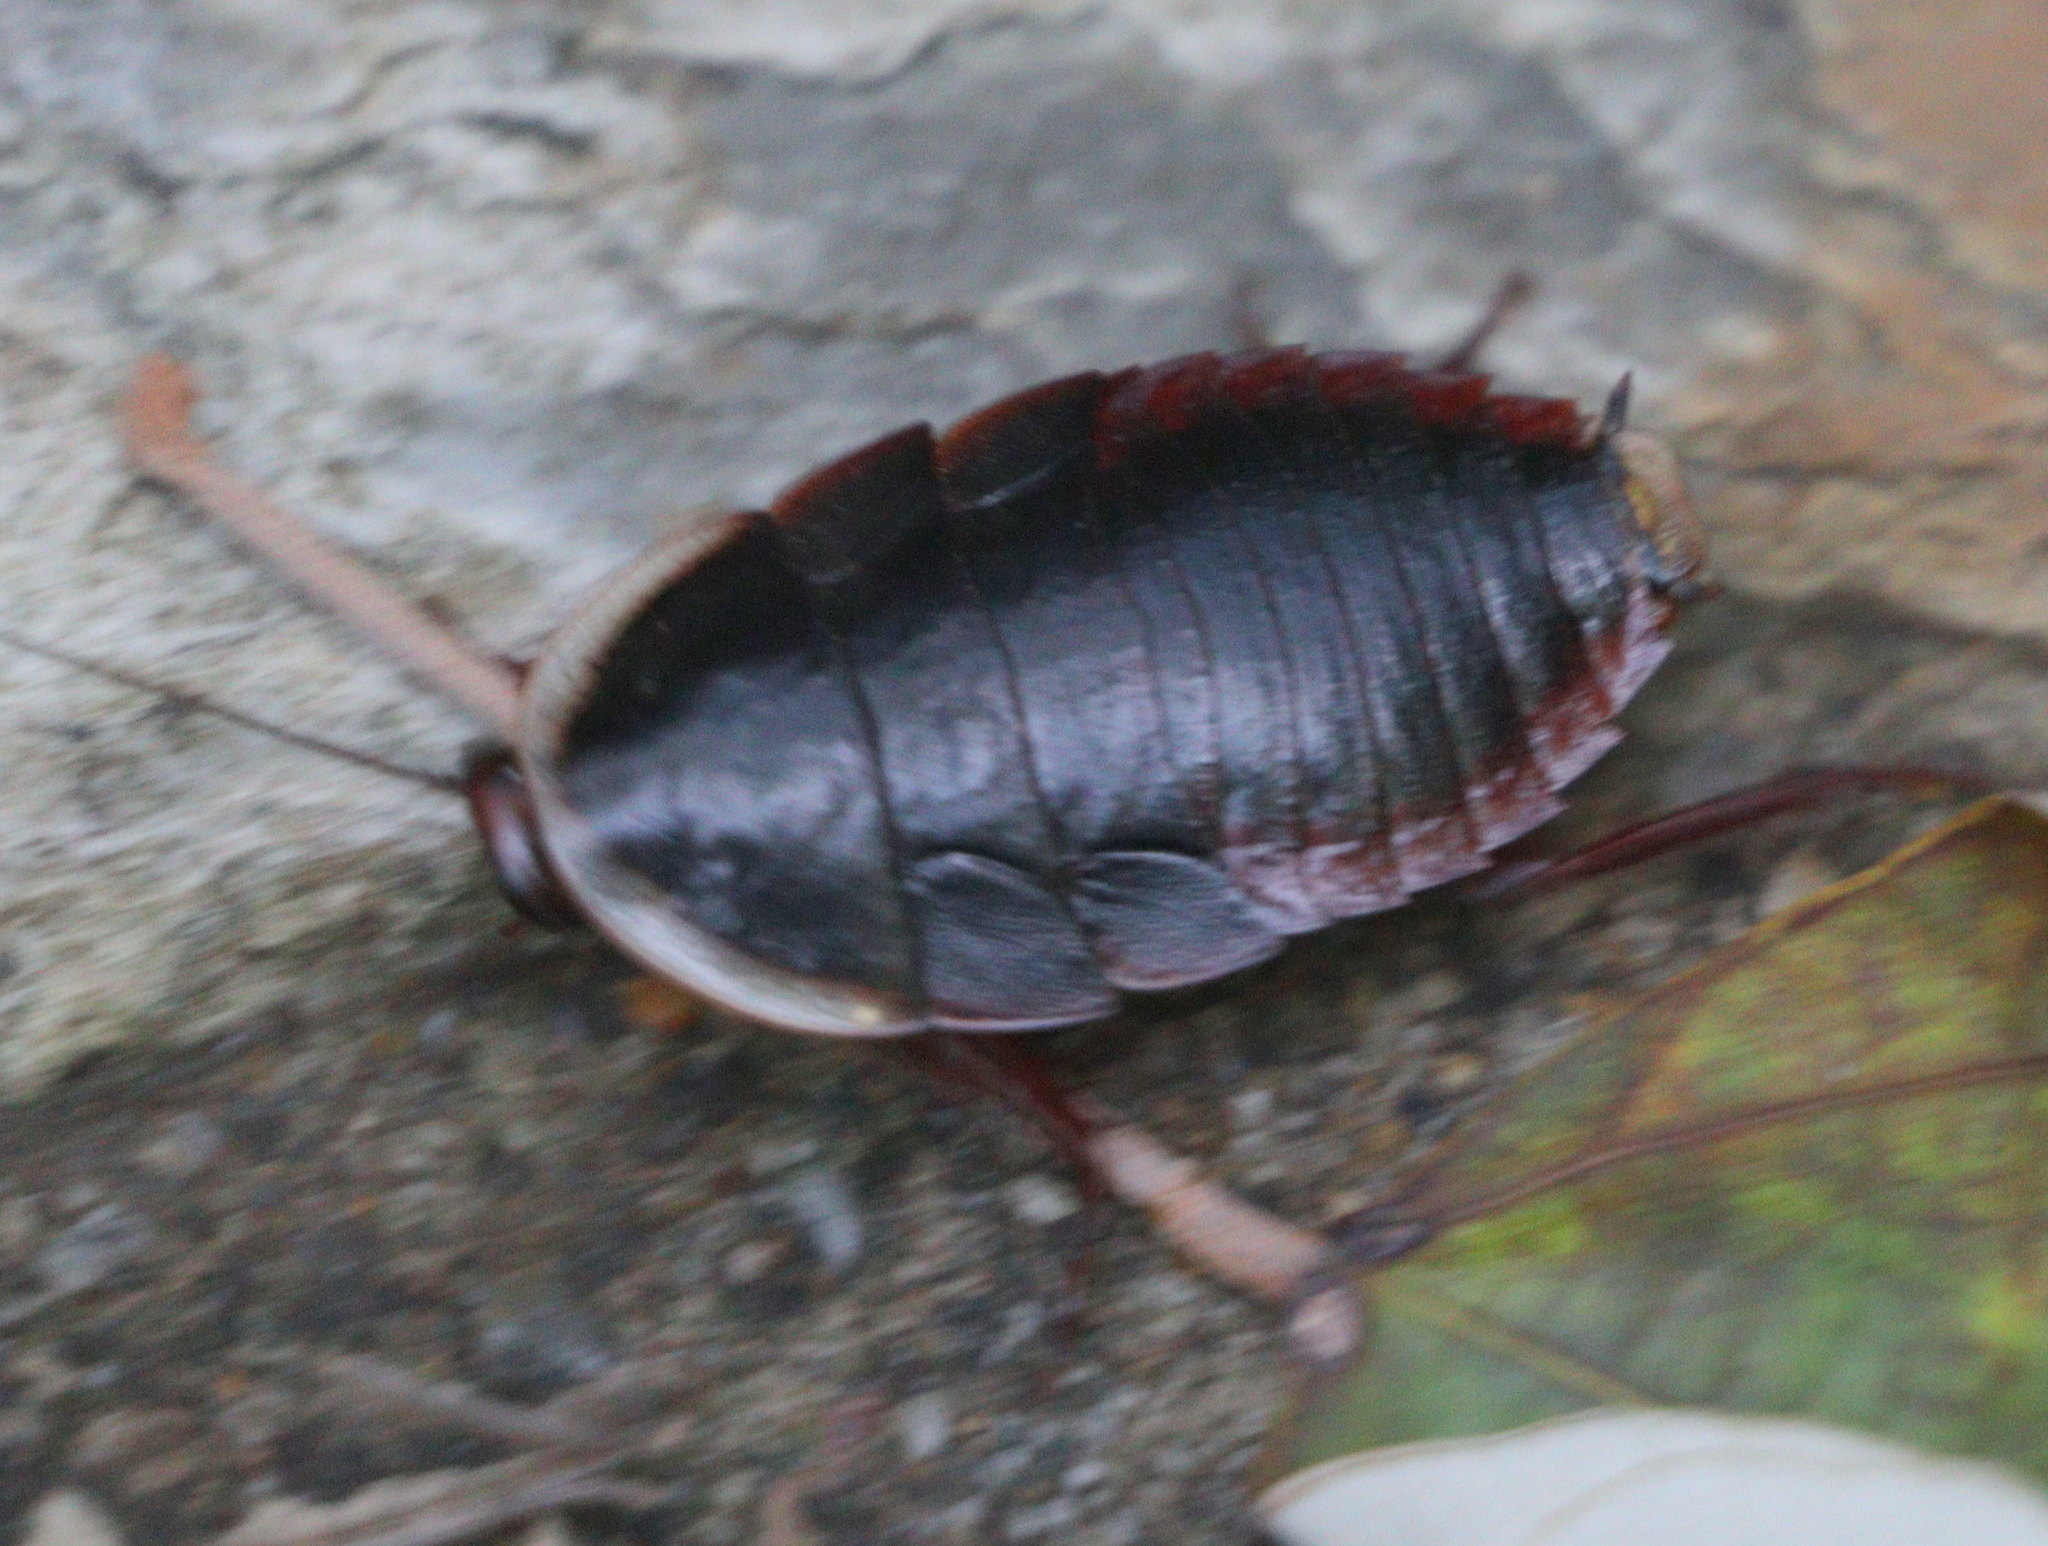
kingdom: Animalia
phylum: Arthropoda
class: Insecta
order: Blattodea
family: Blaberidae
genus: Opisthoplatia
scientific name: Opisthoplatia orientalis
